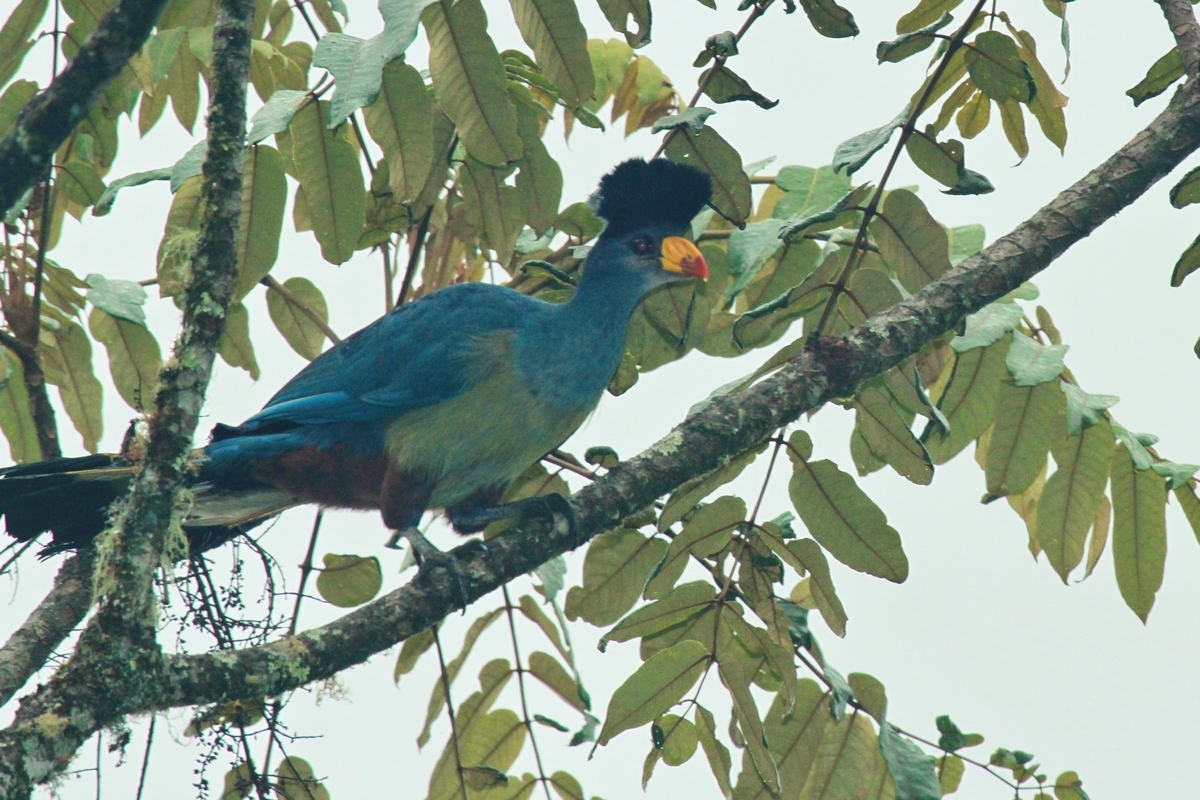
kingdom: Animalia
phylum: Chordata
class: Aves
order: Musophagiformes
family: Musophagidae
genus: Corythaeola
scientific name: Corythaeola cristata
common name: Great blue turaco
